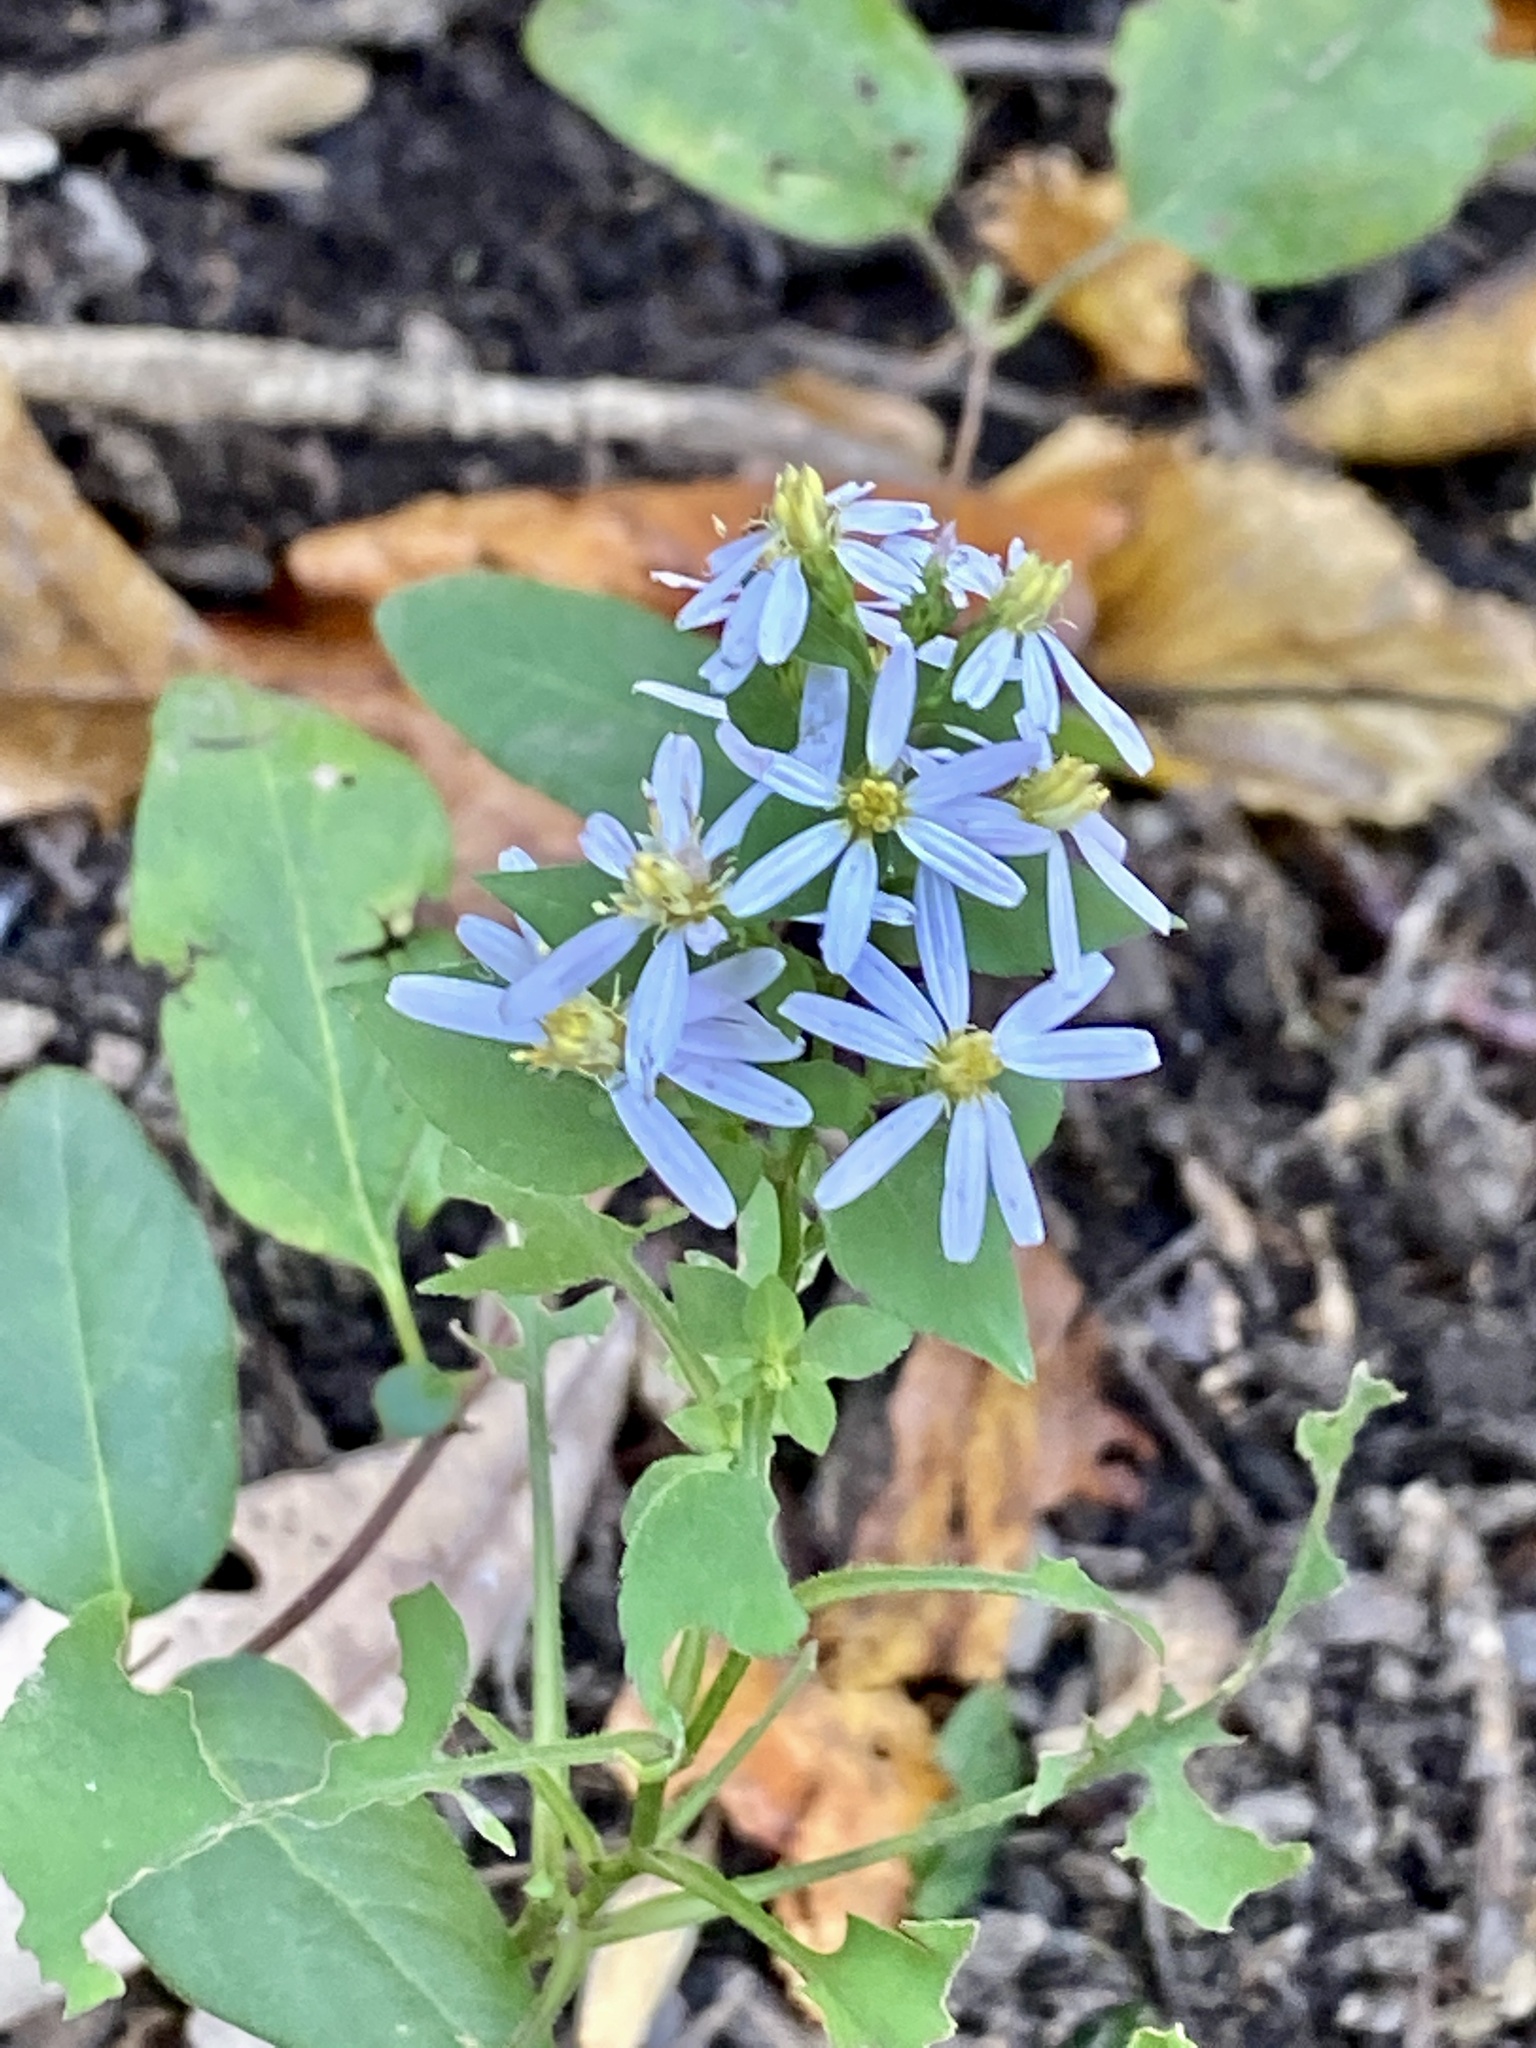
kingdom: Plantae
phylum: Tracheophyta
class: Magnoliopsida
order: Asterales
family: Asteraceae
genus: Symphyotrichum
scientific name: Symphyotrichum cordifolium
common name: Beeweed
